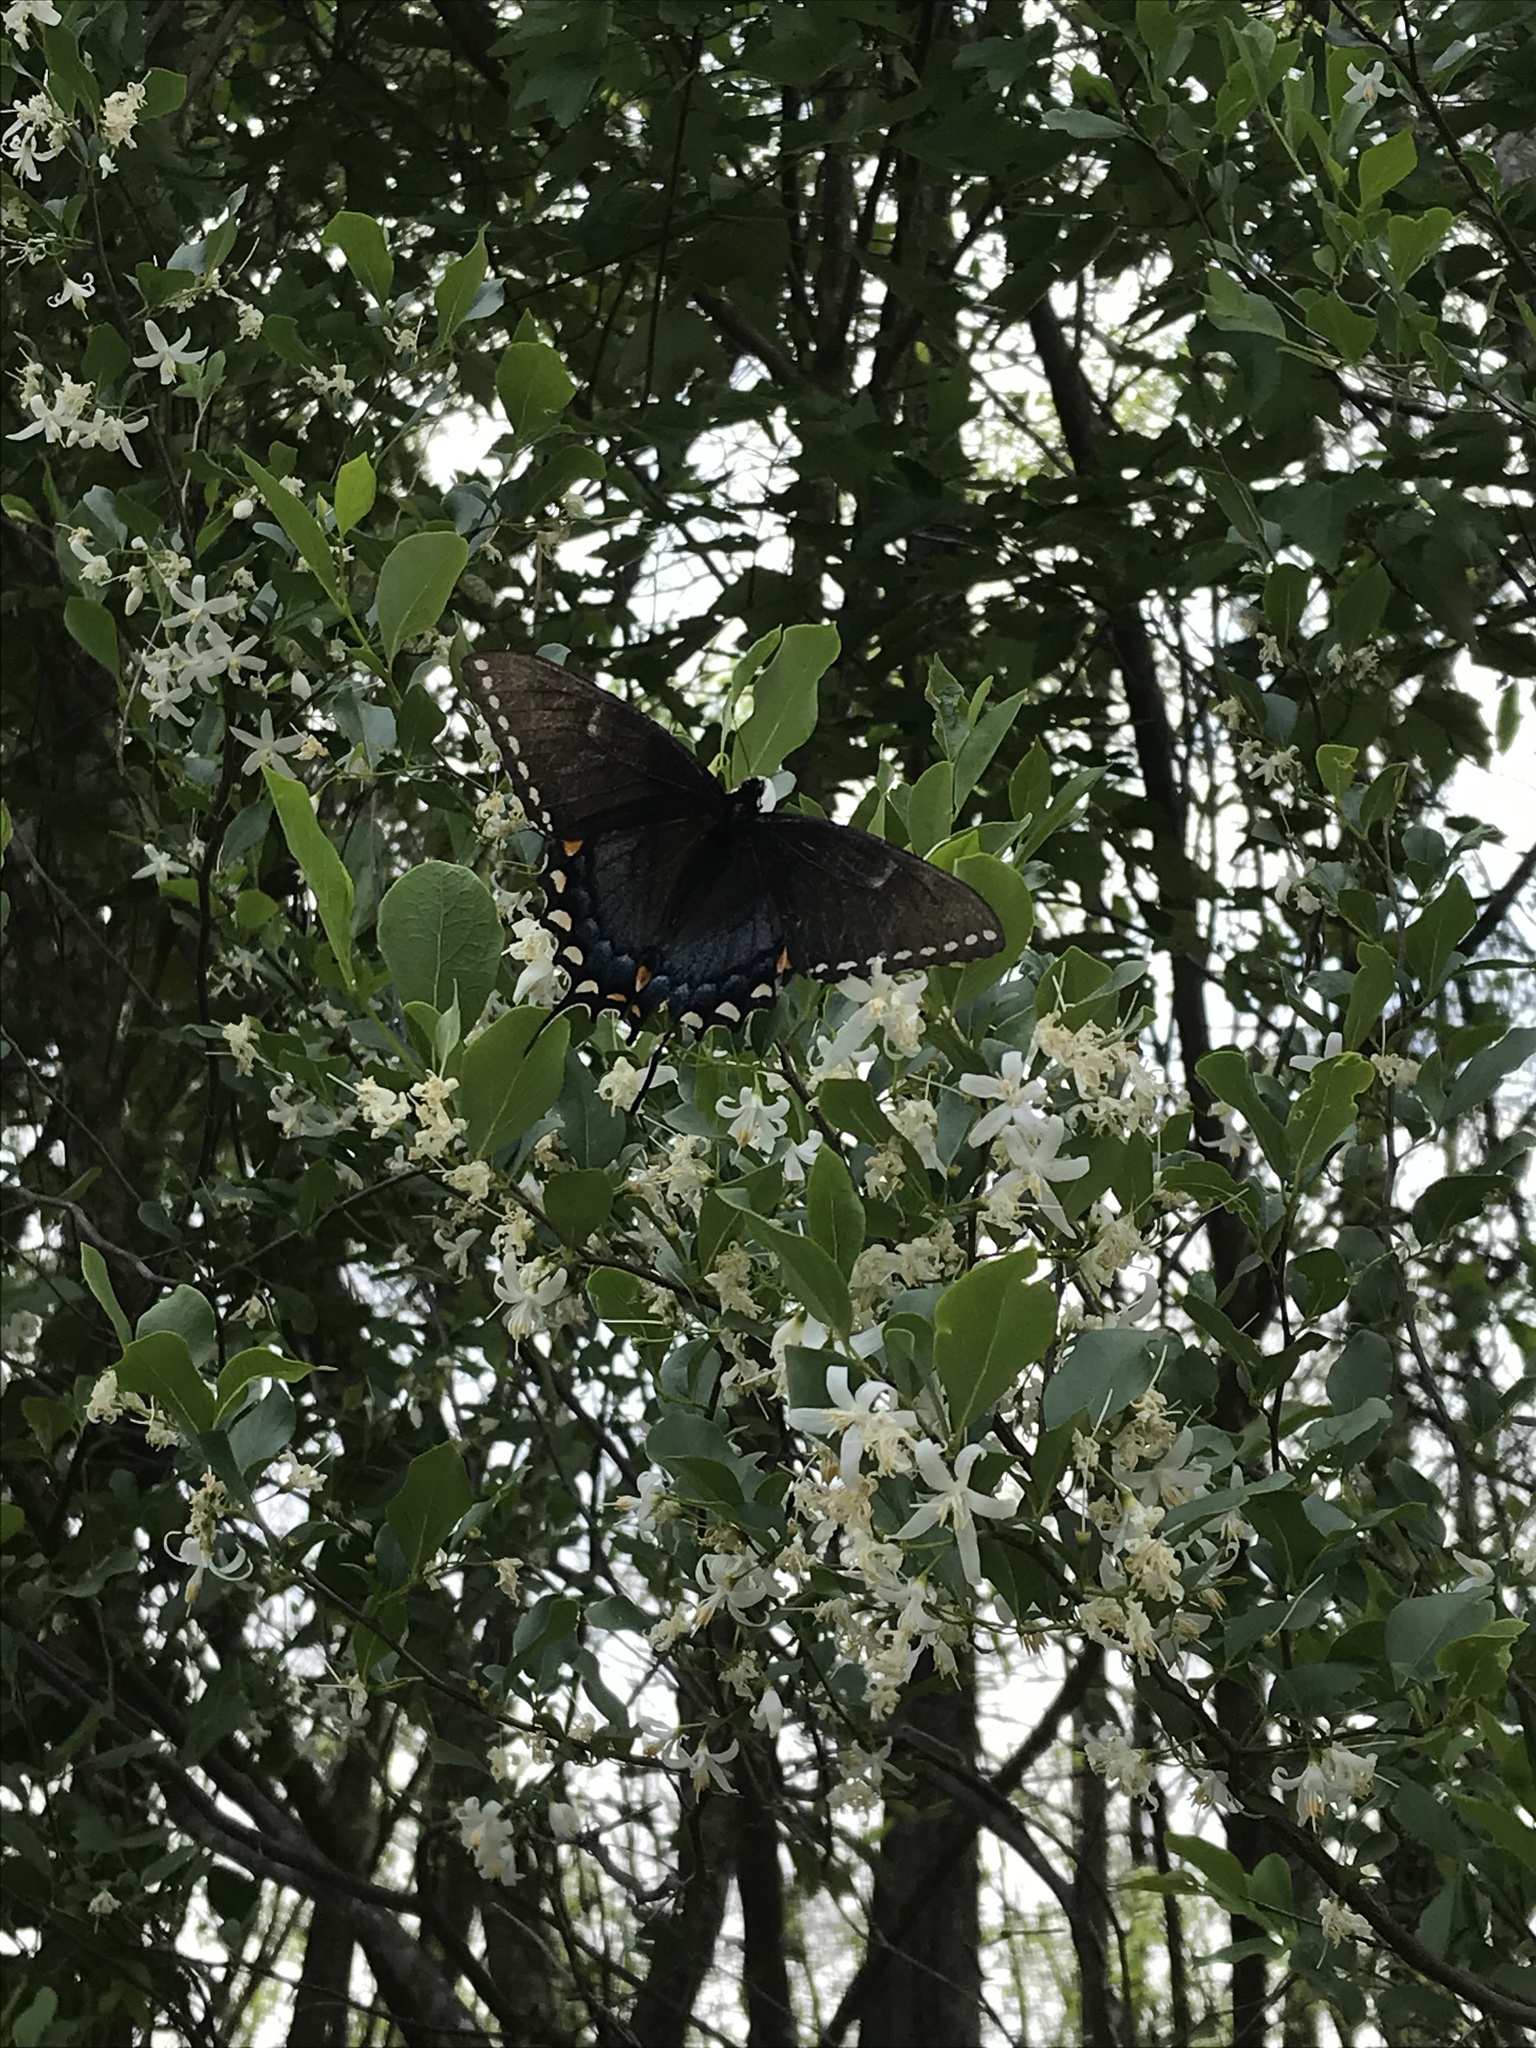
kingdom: Animalia
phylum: Arthropoda
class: Insecta
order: Lepidoptera
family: Papilionidae
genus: Papilio
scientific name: Papilio glaucus
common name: Tiger swallowtail
